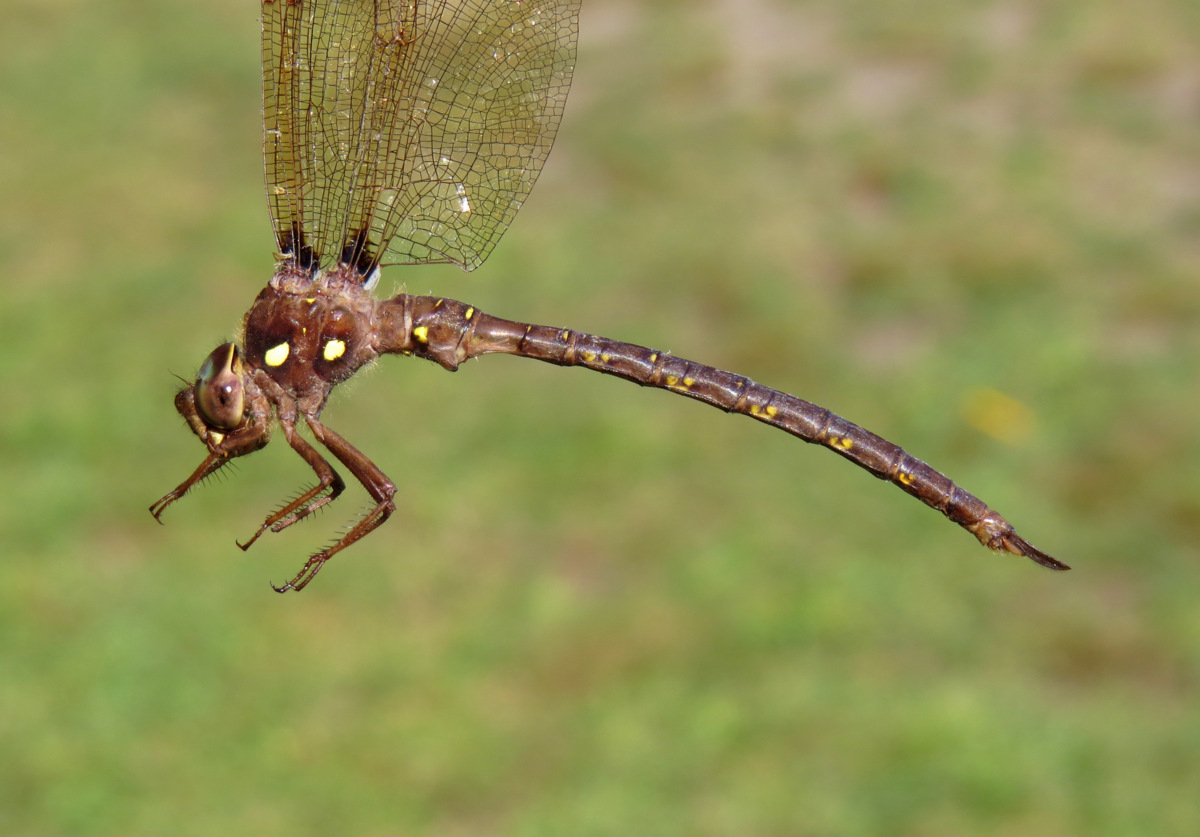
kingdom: Animalia
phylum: Arthropoda
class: Insecta
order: Odonata
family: Aeshnidae
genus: Boyeria
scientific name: Boyeria vinosa
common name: Fawn darner
